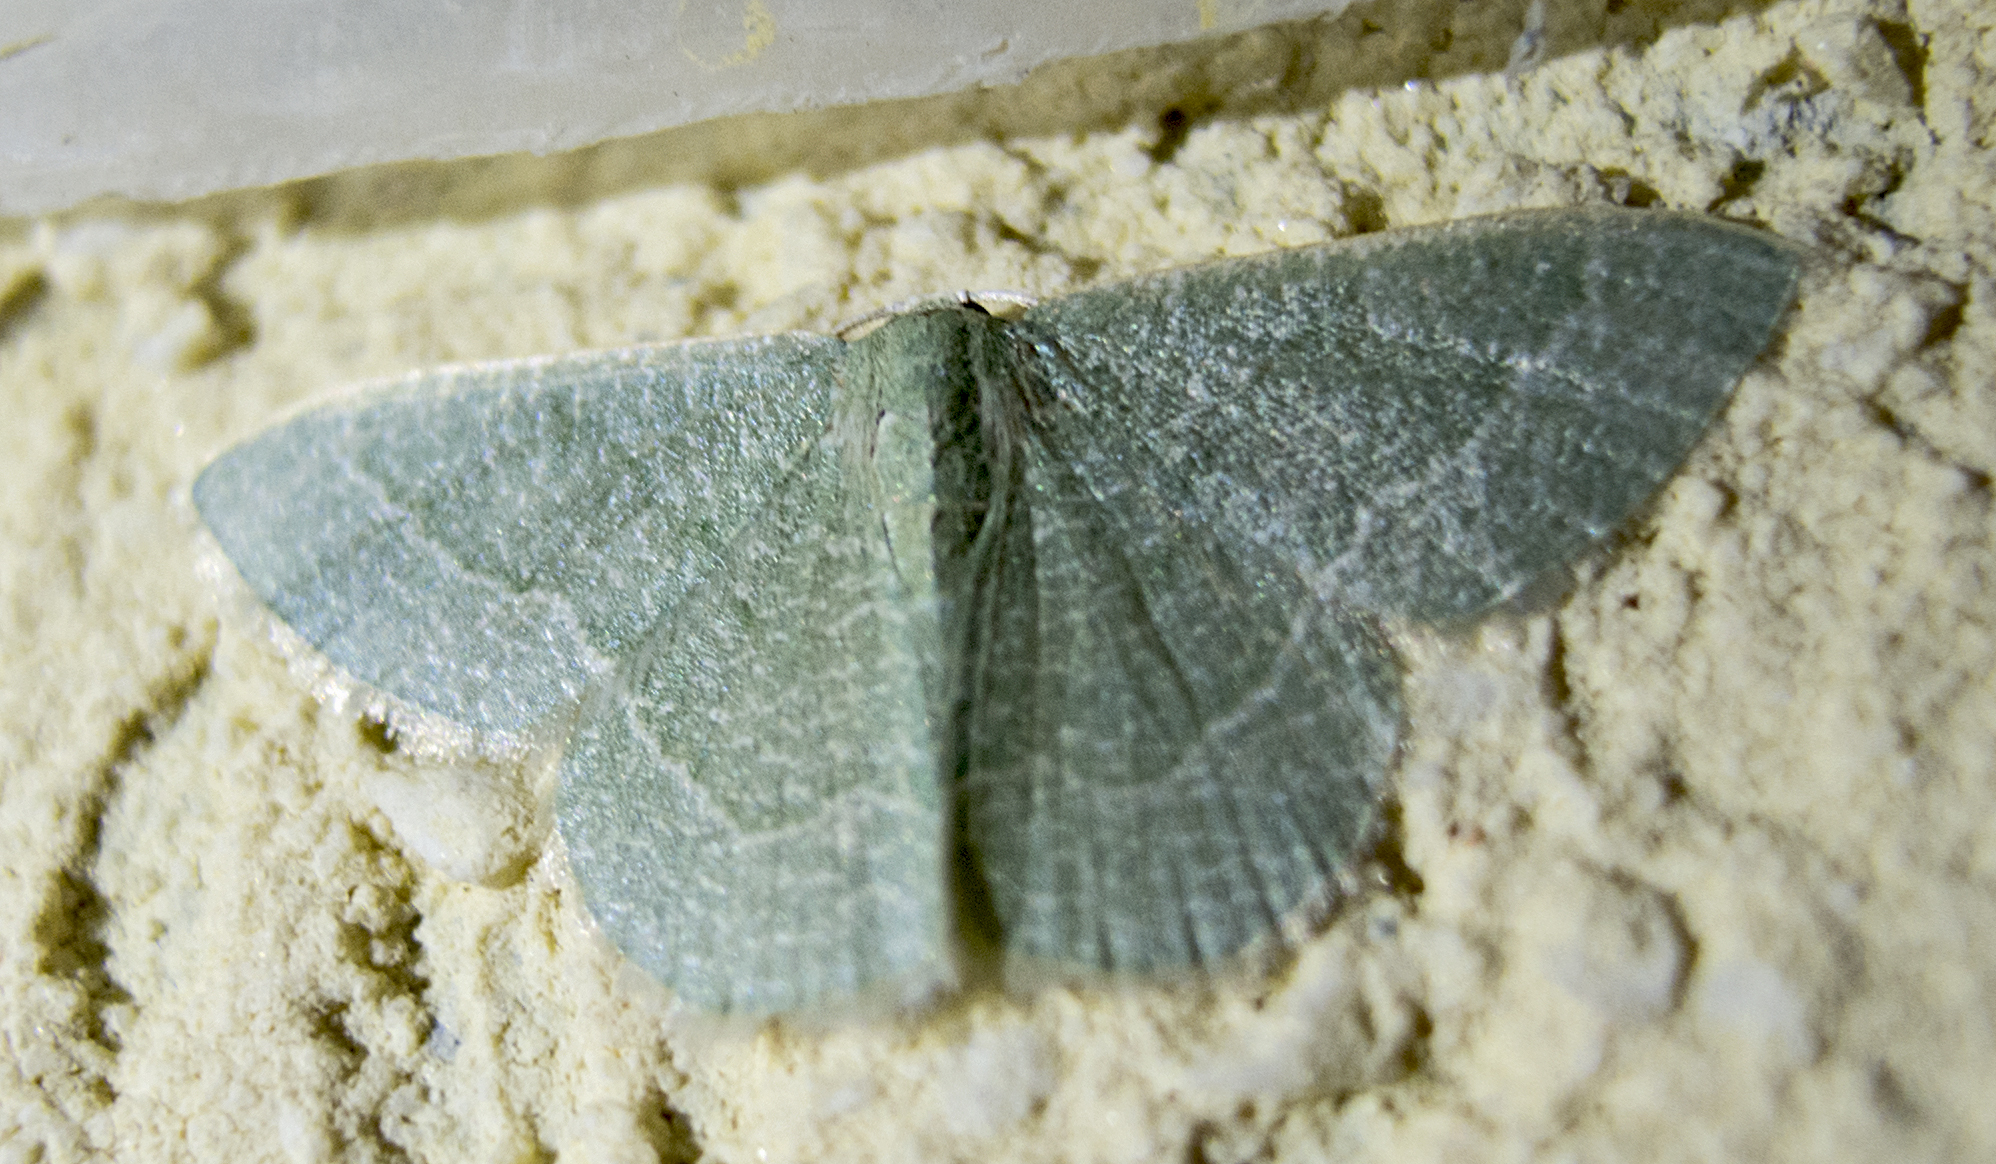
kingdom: Animalia
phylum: Arthropoda
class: Insecta
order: Lepidoptera
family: Geometridae
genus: Chlorissa
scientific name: Chlorissa etruscaria
